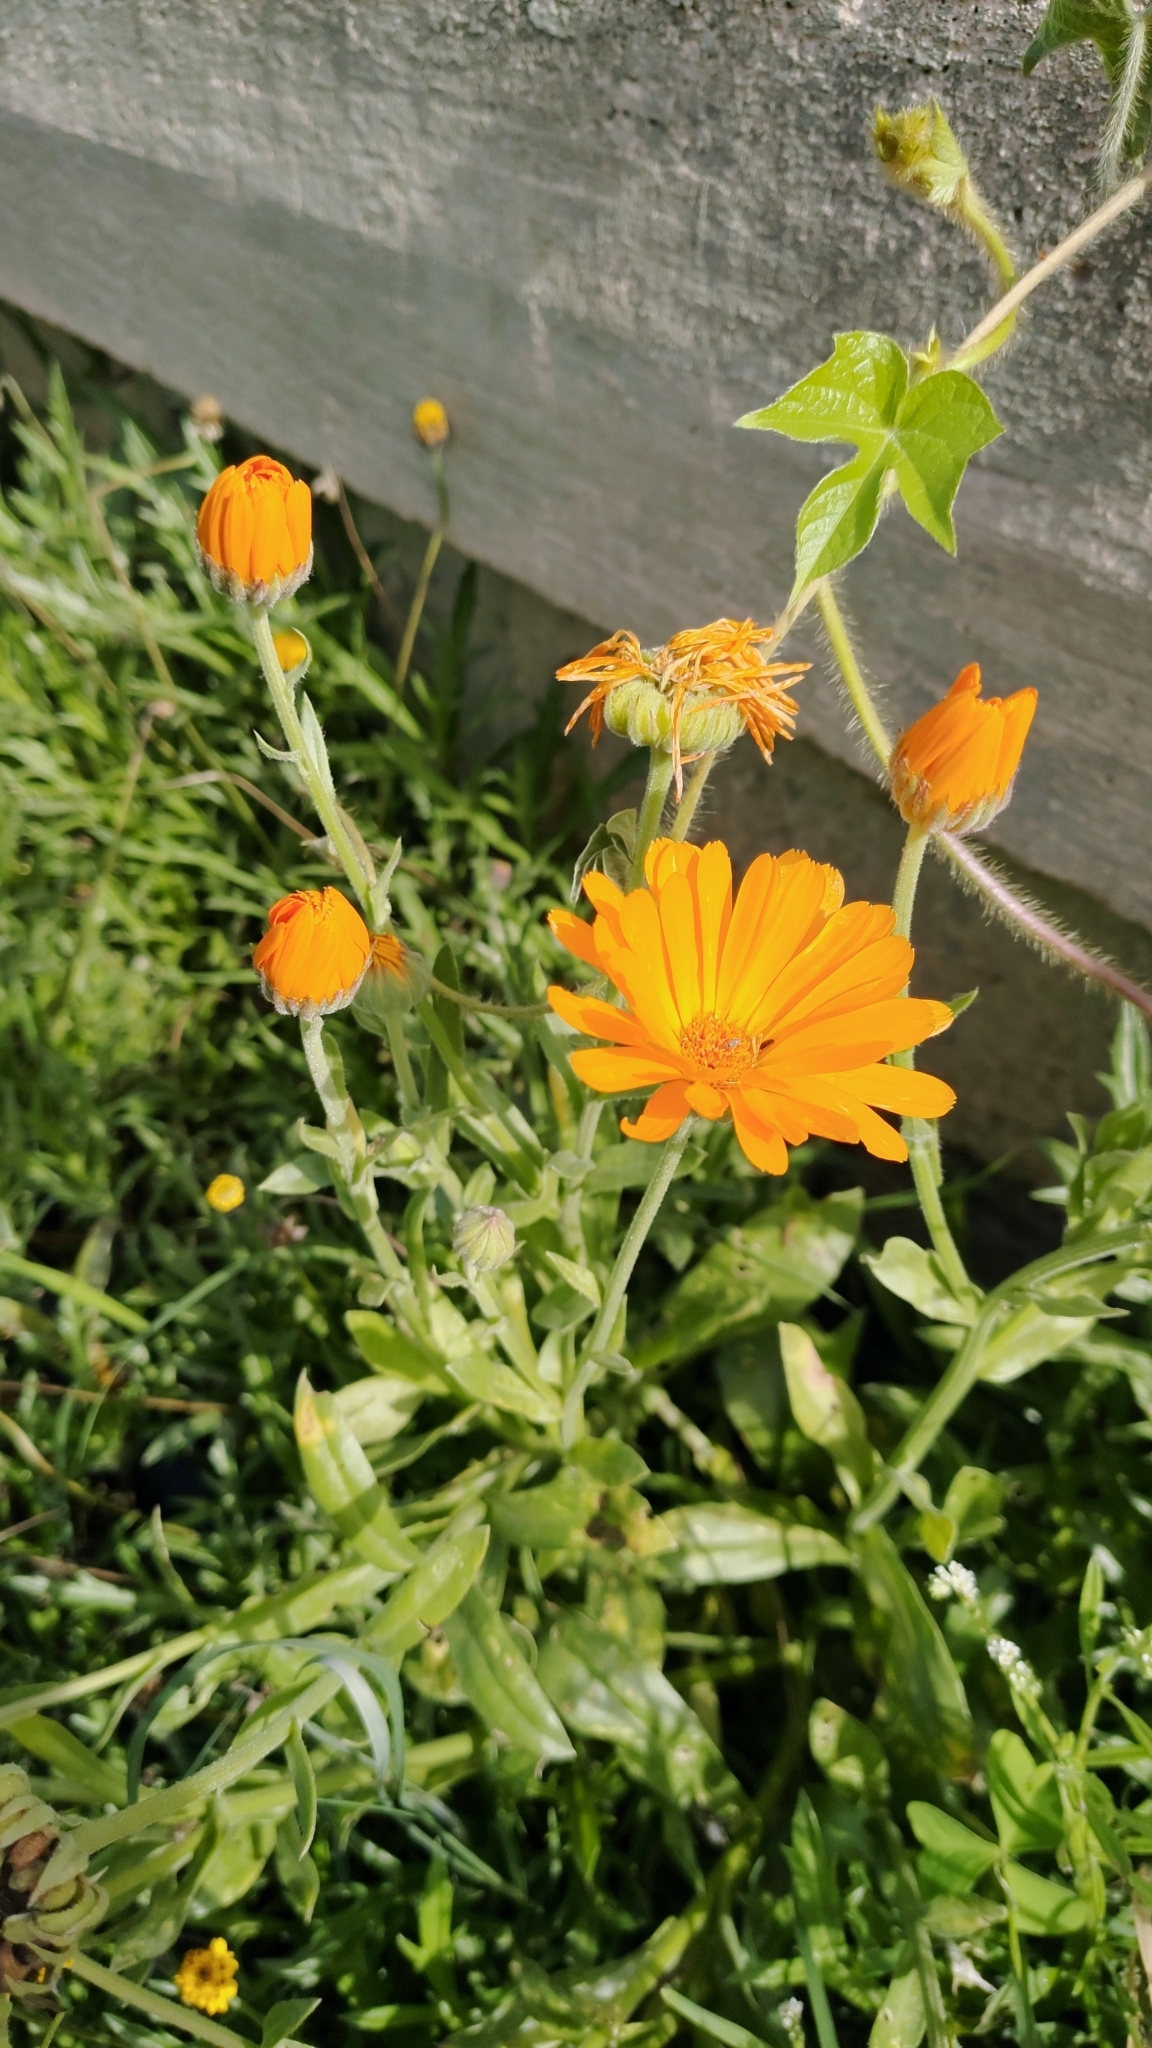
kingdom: Plantae
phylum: Tracheophyta
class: Magnoliopsida
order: Asterales
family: Asteraceae
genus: Calendula
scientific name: Calendula officinalis
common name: Pot marigold
